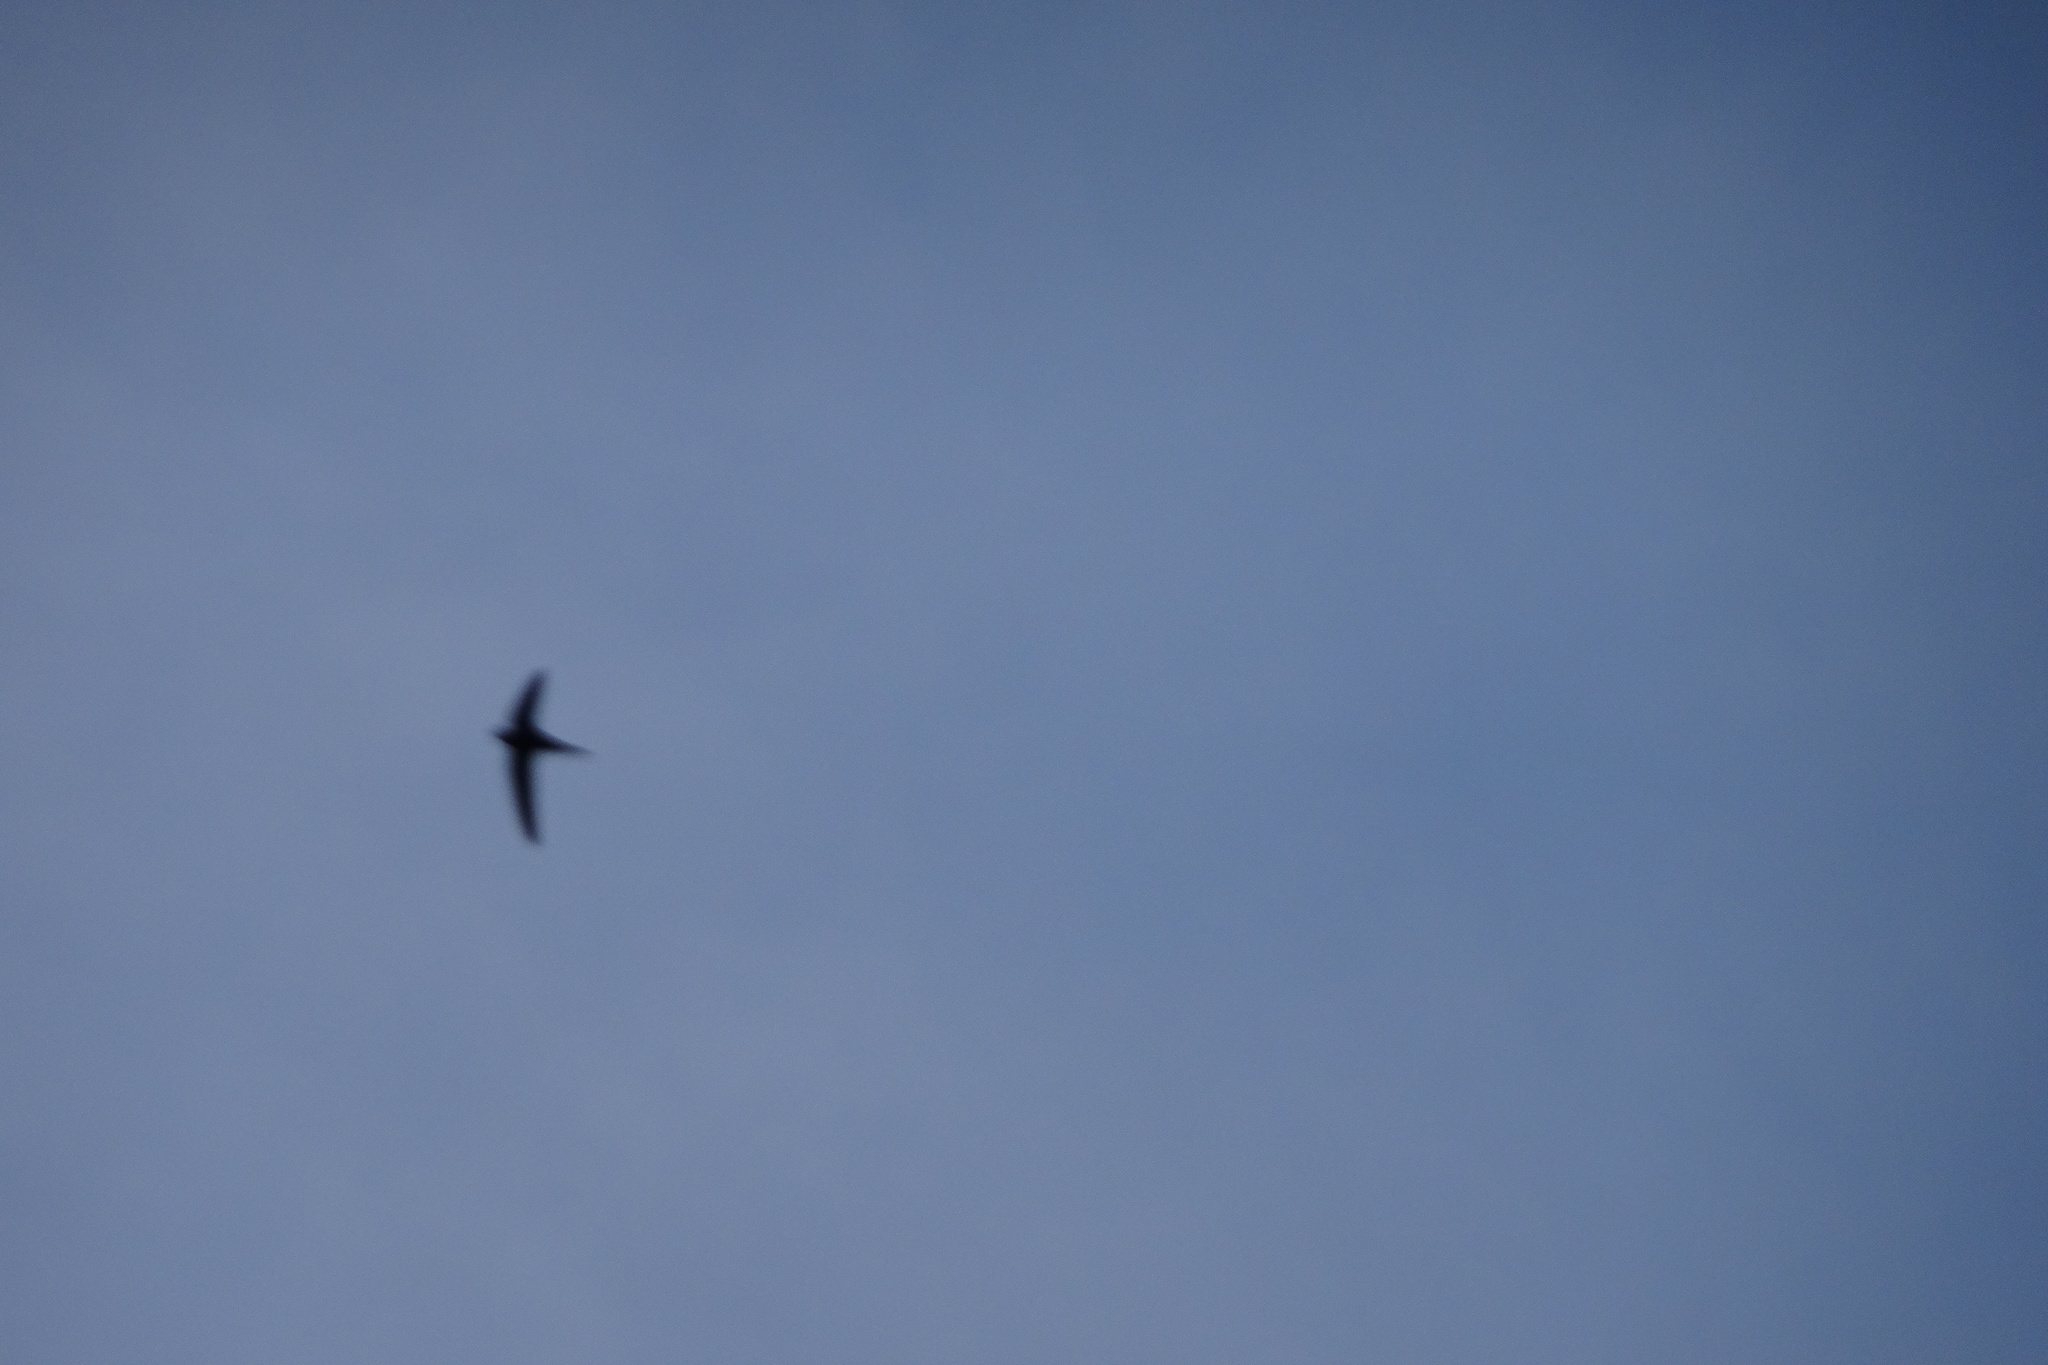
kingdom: Animalia
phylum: Chordata
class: Aves
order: Apodiformes
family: Apodidae
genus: Apus
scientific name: Apus apus
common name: Common swift
